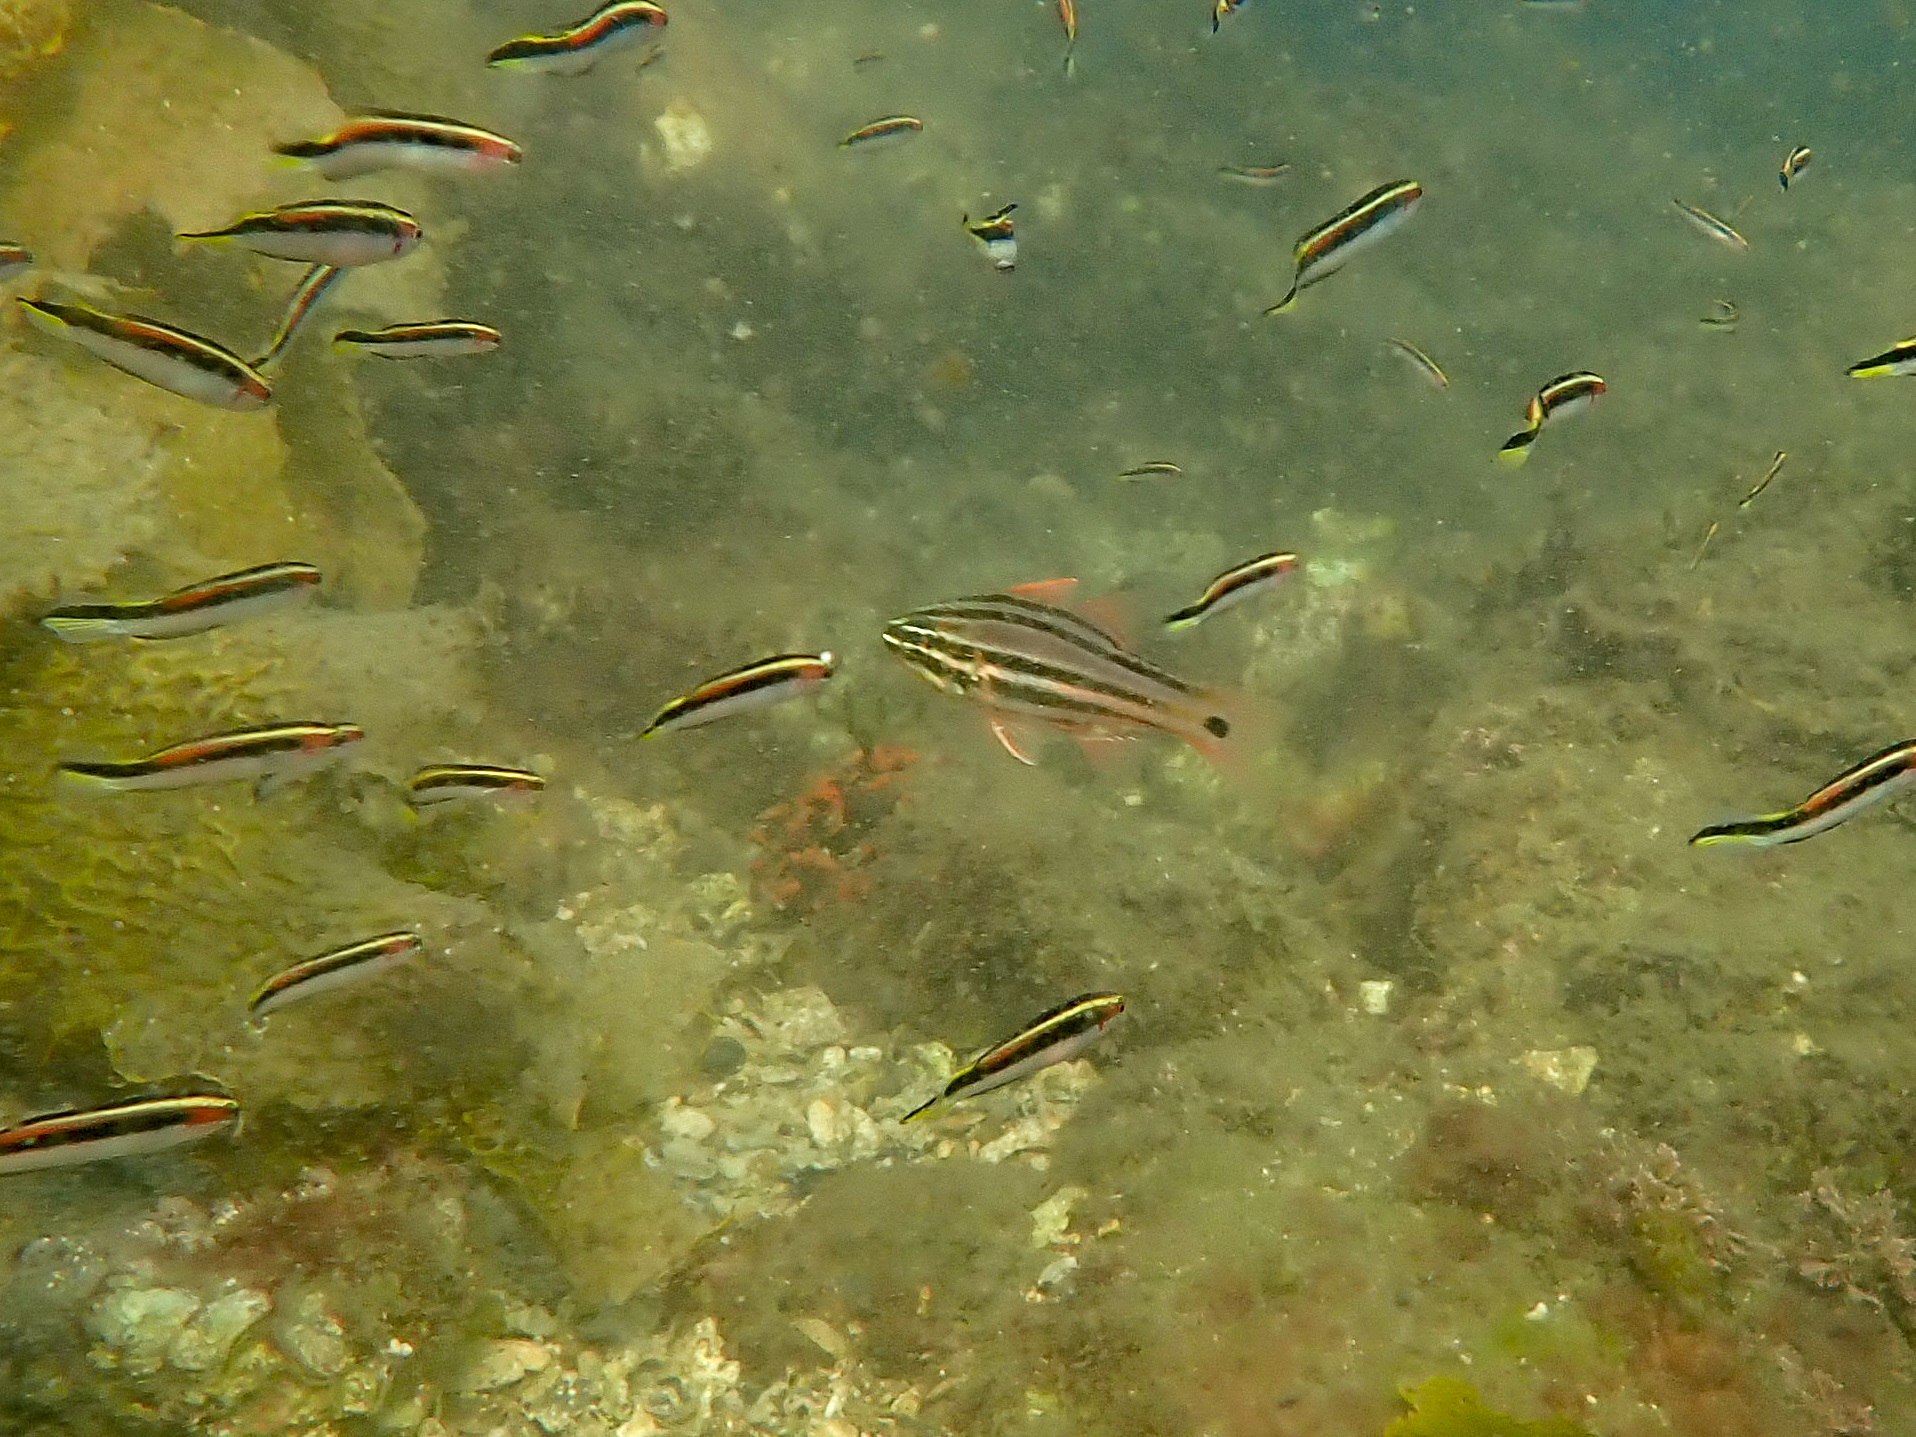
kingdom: Animalia
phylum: Chordata
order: Perciformes
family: Apogonidae
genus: Ostorhinchus
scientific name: Ostorhinchus limenus
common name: Four-banded soldierfish
